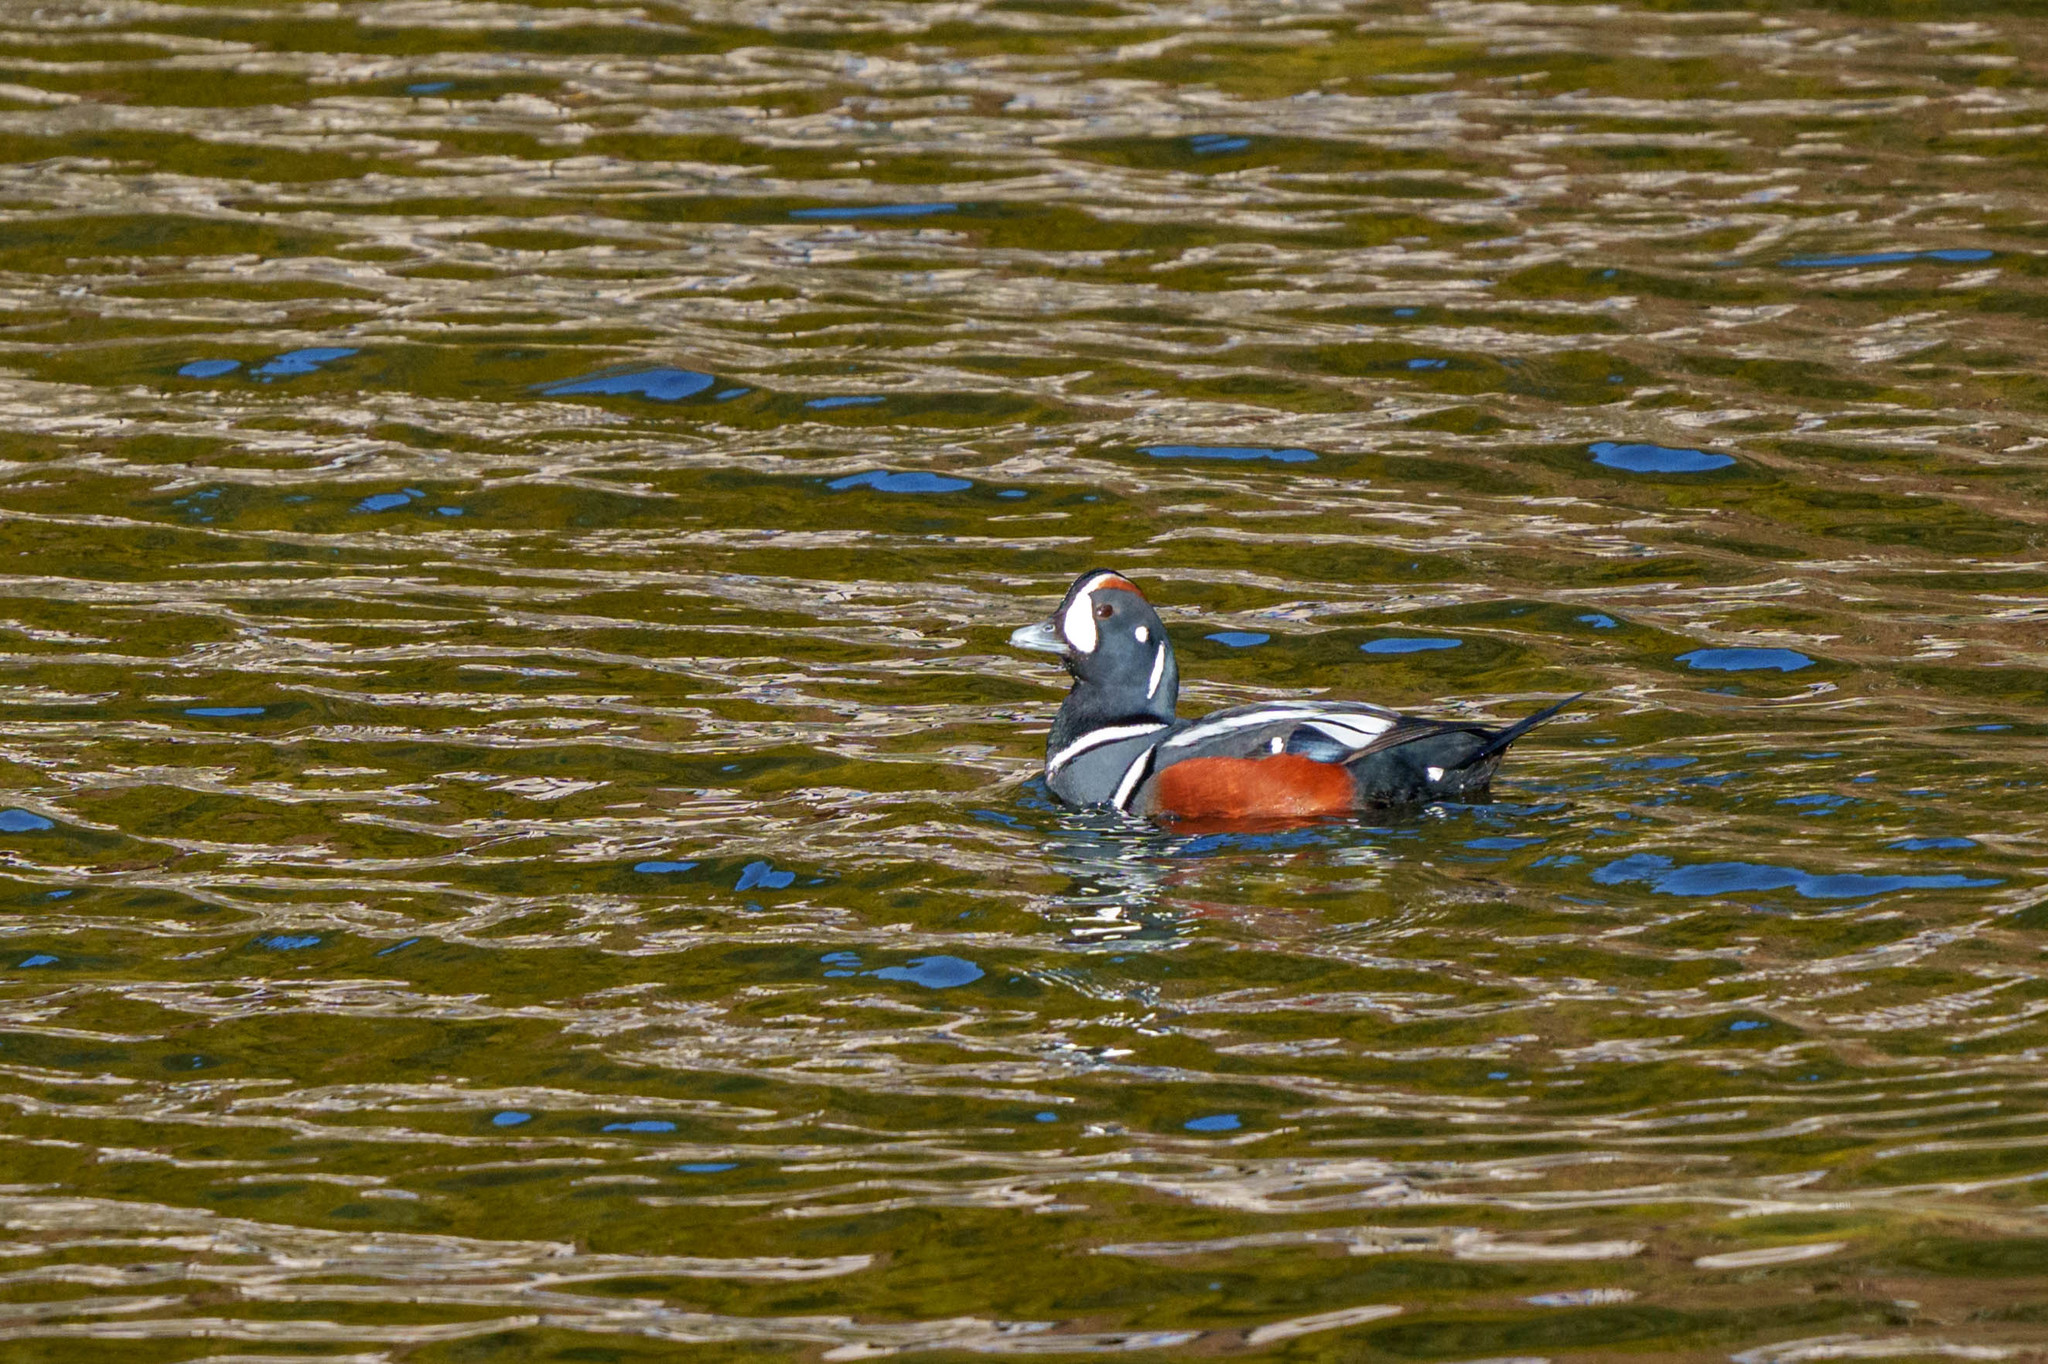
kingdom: Animalia
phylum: Chordata
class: Aves
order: Anseriformes
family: Anatidae
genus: Histrionicus
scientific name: Histrionicus histrionicus
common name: Harlequin duck
